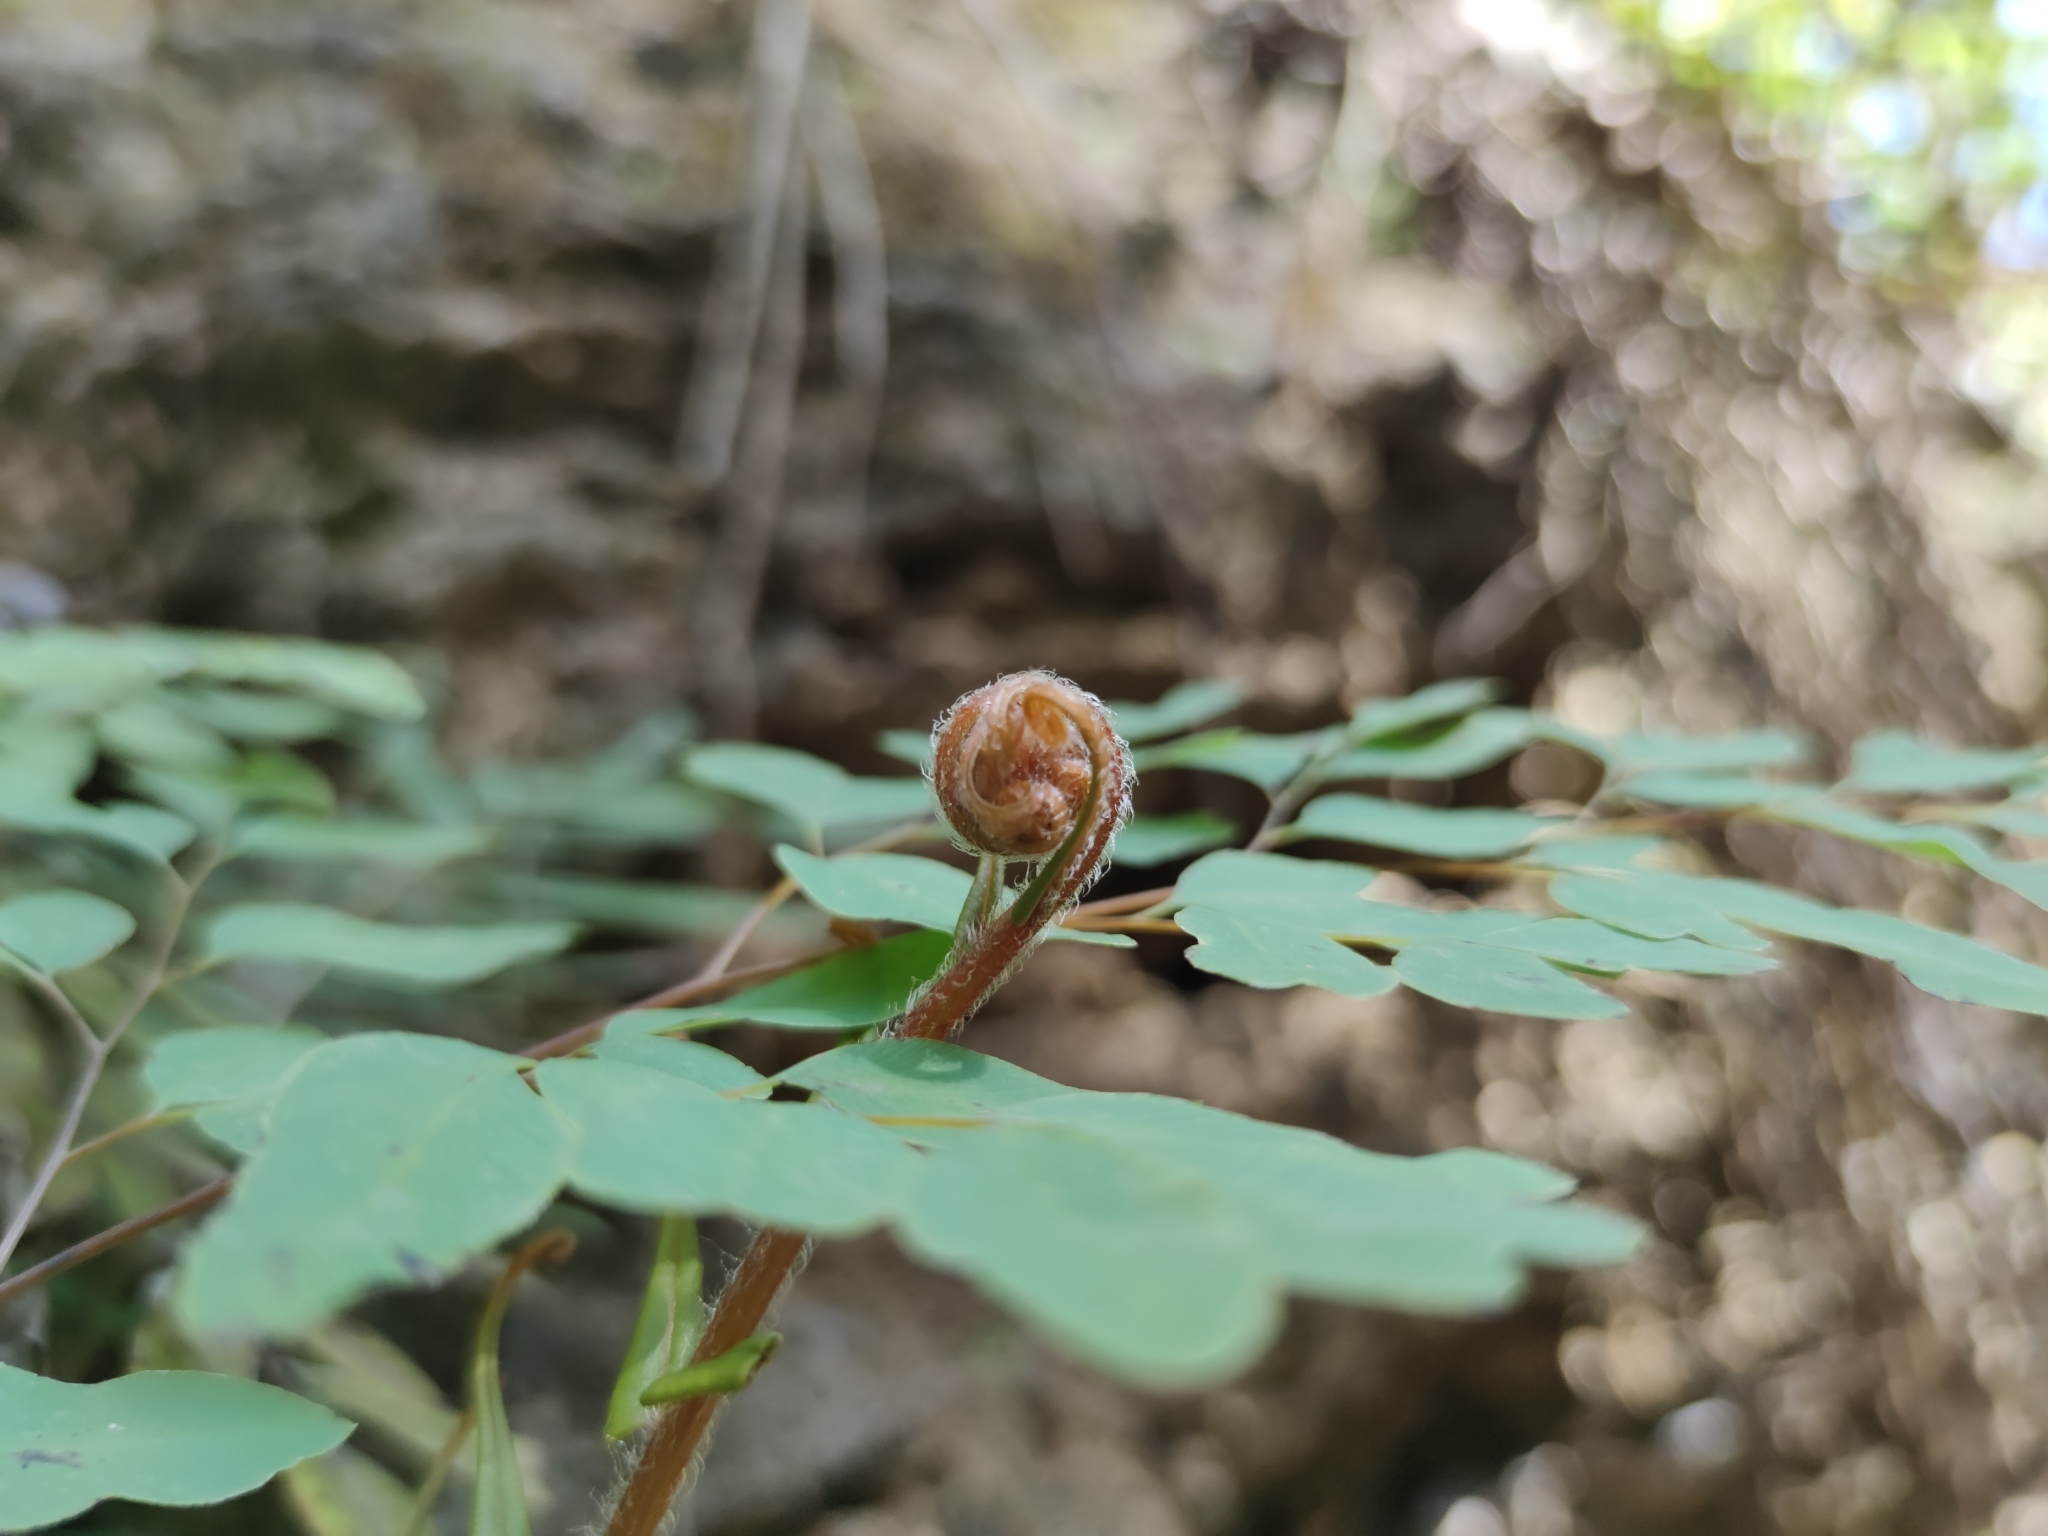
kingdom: Plantae
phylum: Tracheophyta
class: Polypodiopsida
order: Polypodiales
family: Pteridaceae
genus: Llavea
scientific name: Llavea cordifolia
